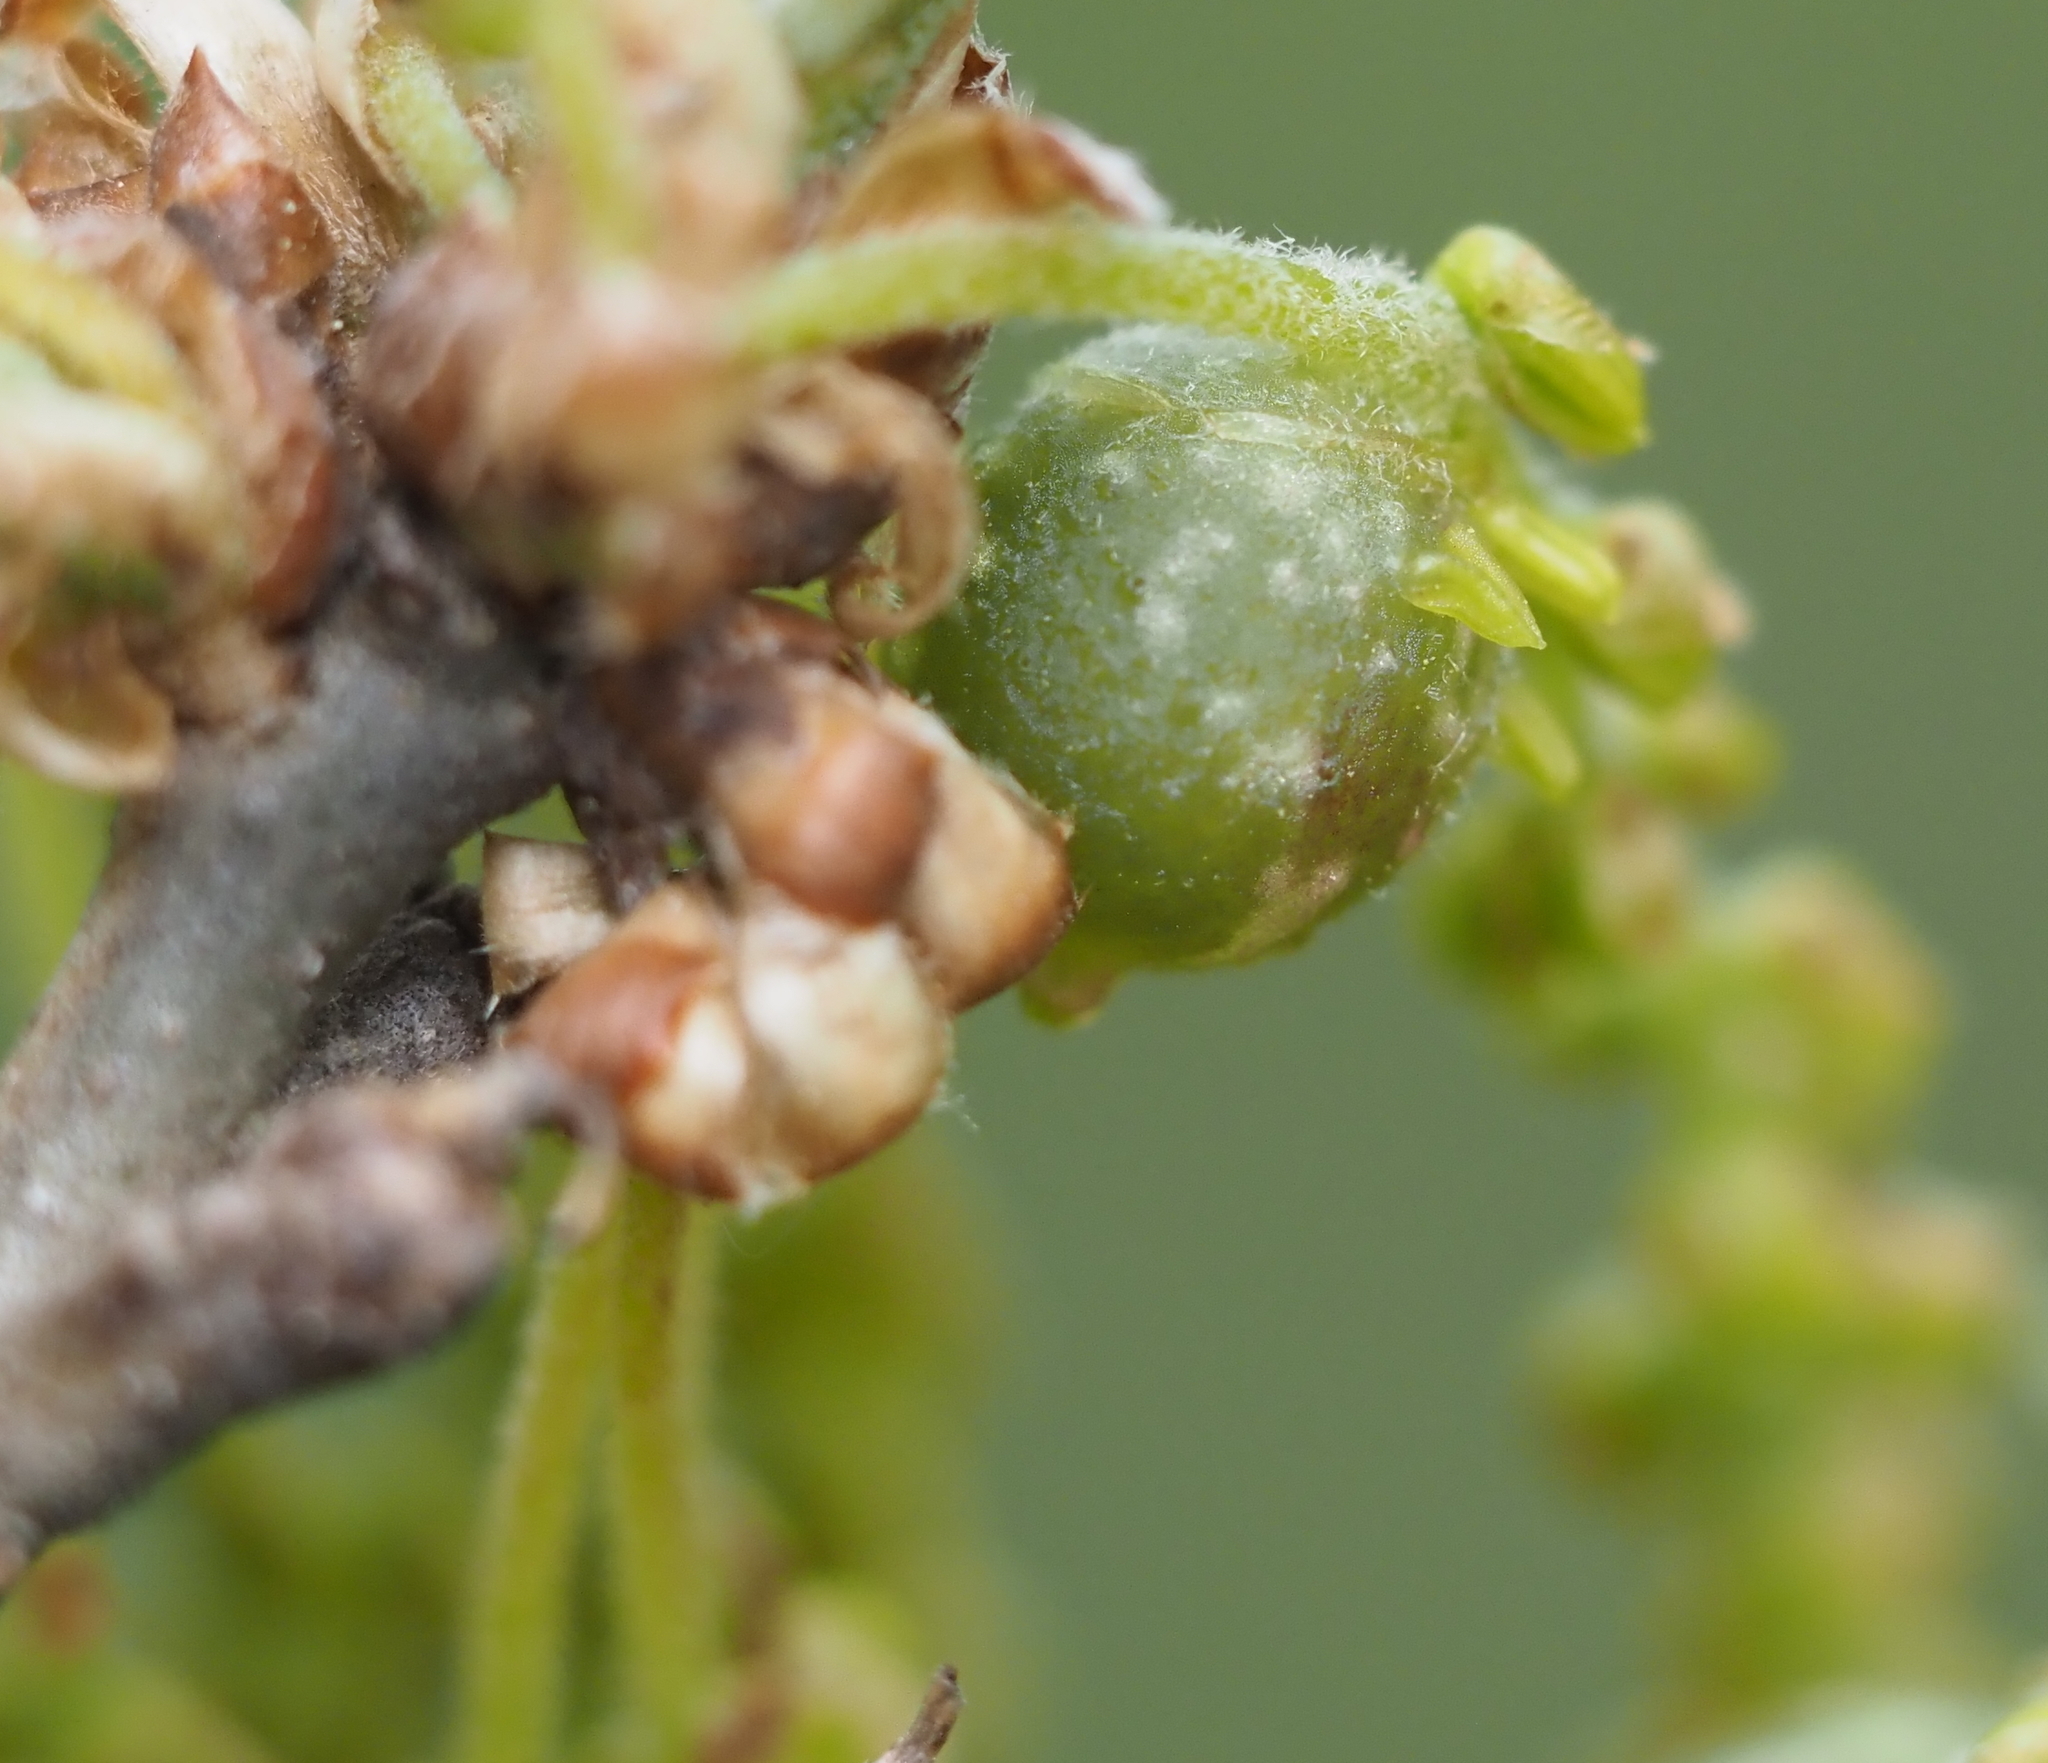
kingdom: Animalia
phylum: Arthropoda
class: Insecta
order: Hymenoptera
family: Cynipidae
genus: Dryocosmus
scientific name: Dryocosmus quercuspalustris
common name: Succulent oak gall wasp
